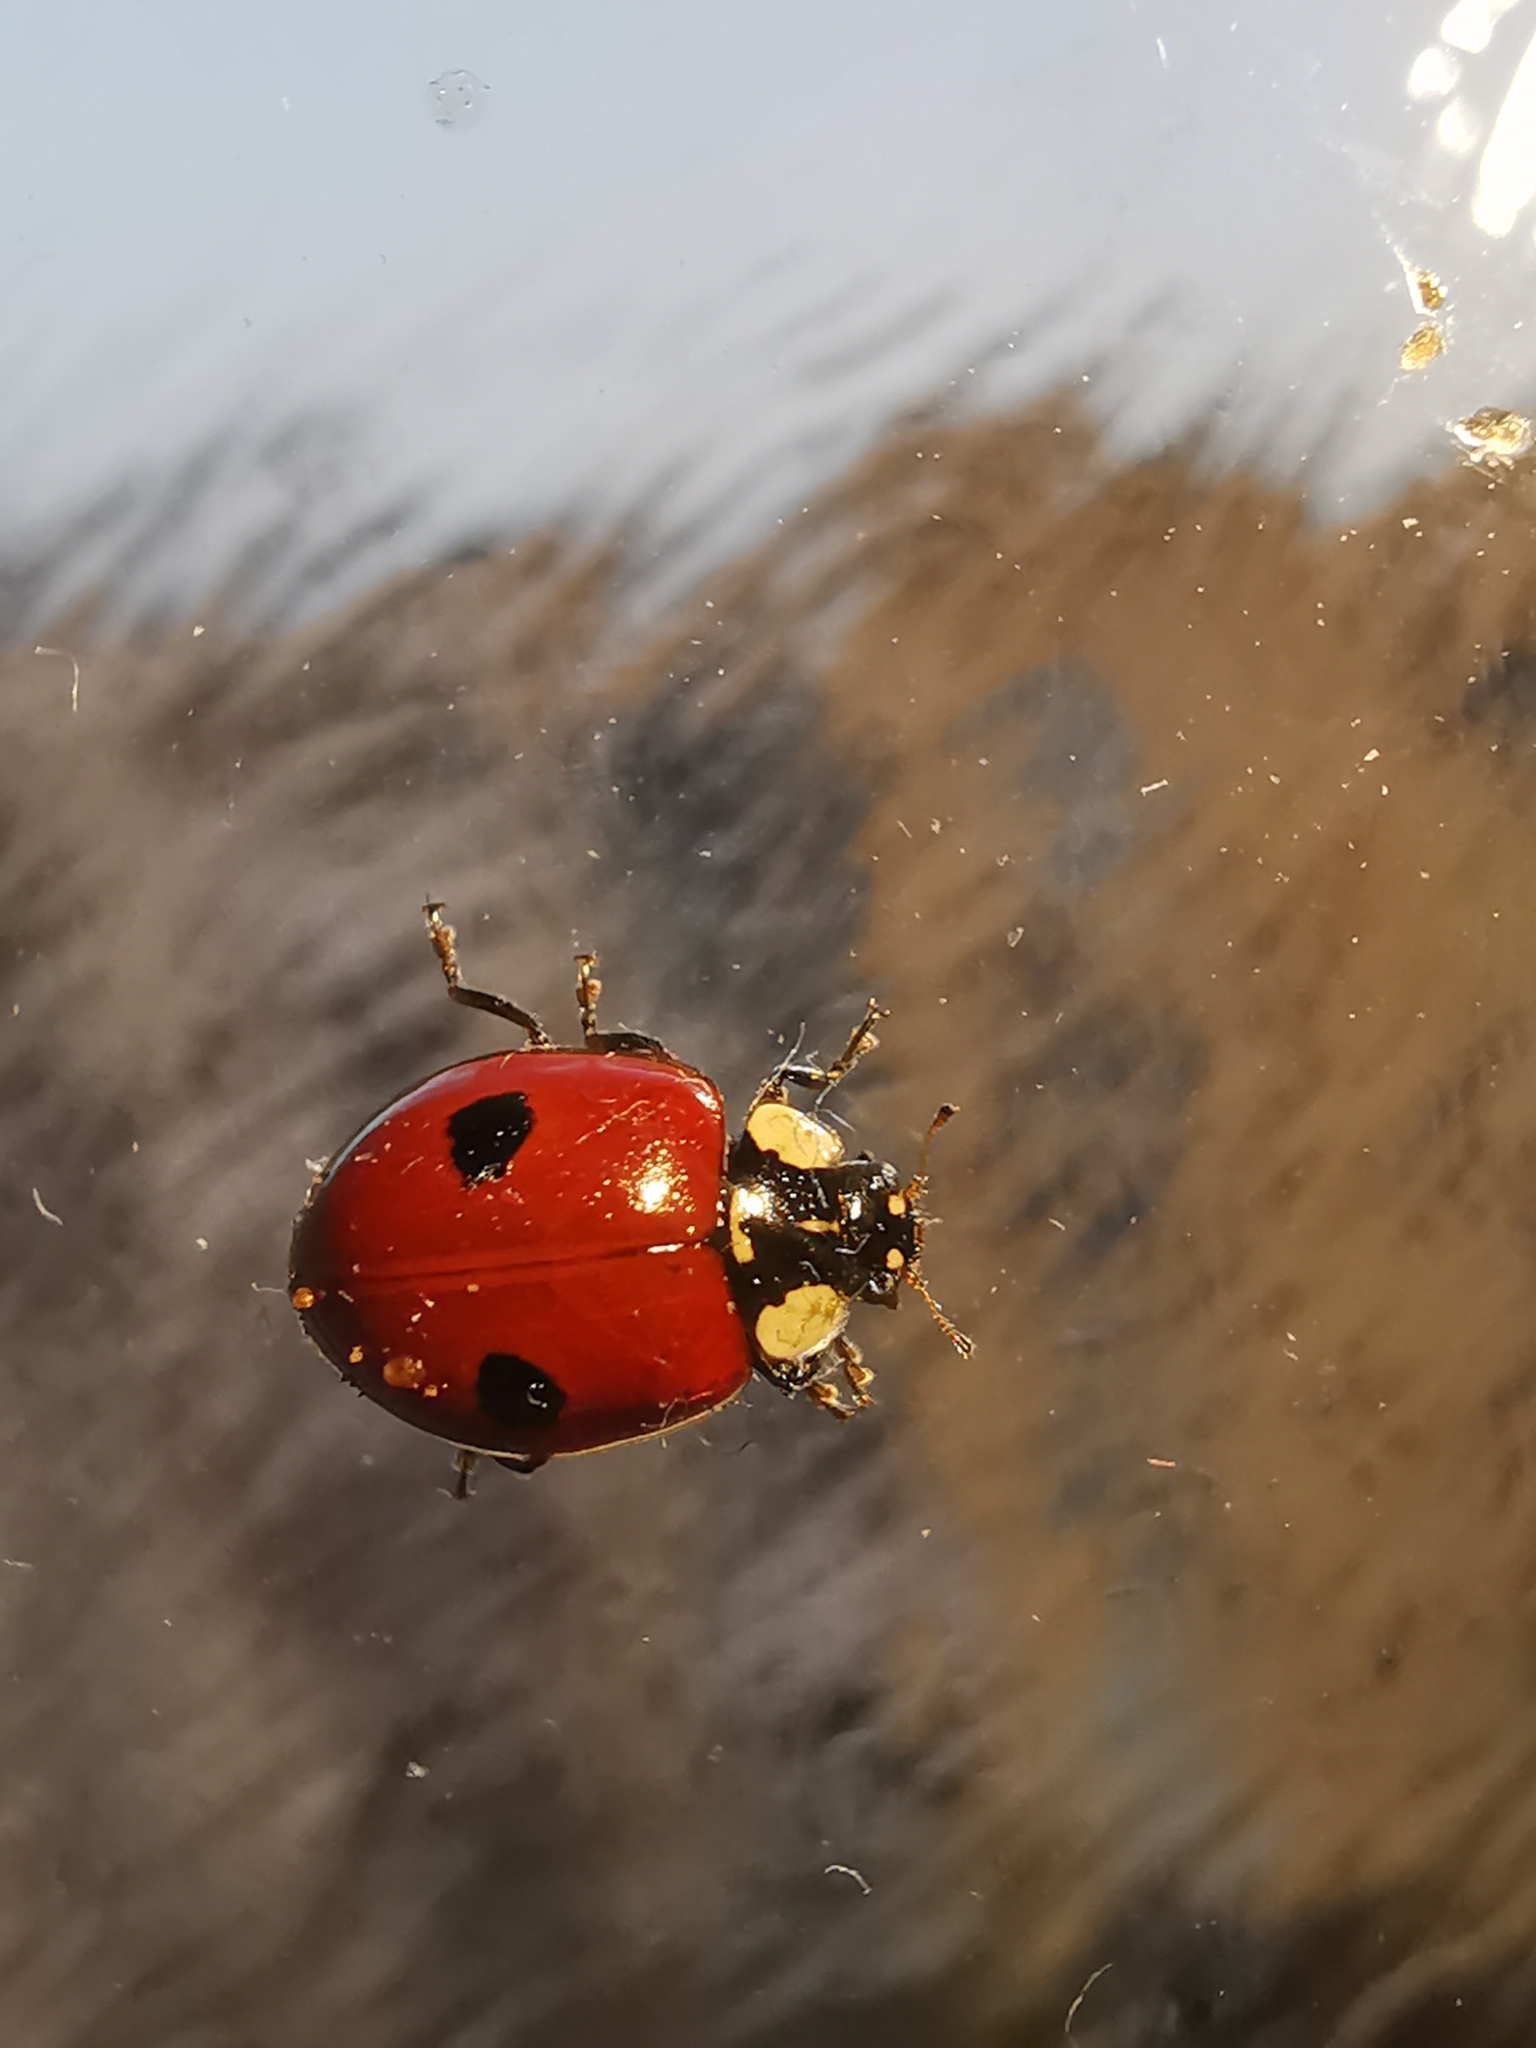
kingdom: Animalia
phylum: Arthropoda
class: Insecta
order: Coleoptera
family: Coccinellidae
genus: Adalia
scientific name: Adalia bipunctata
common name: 2-spot ladybird
